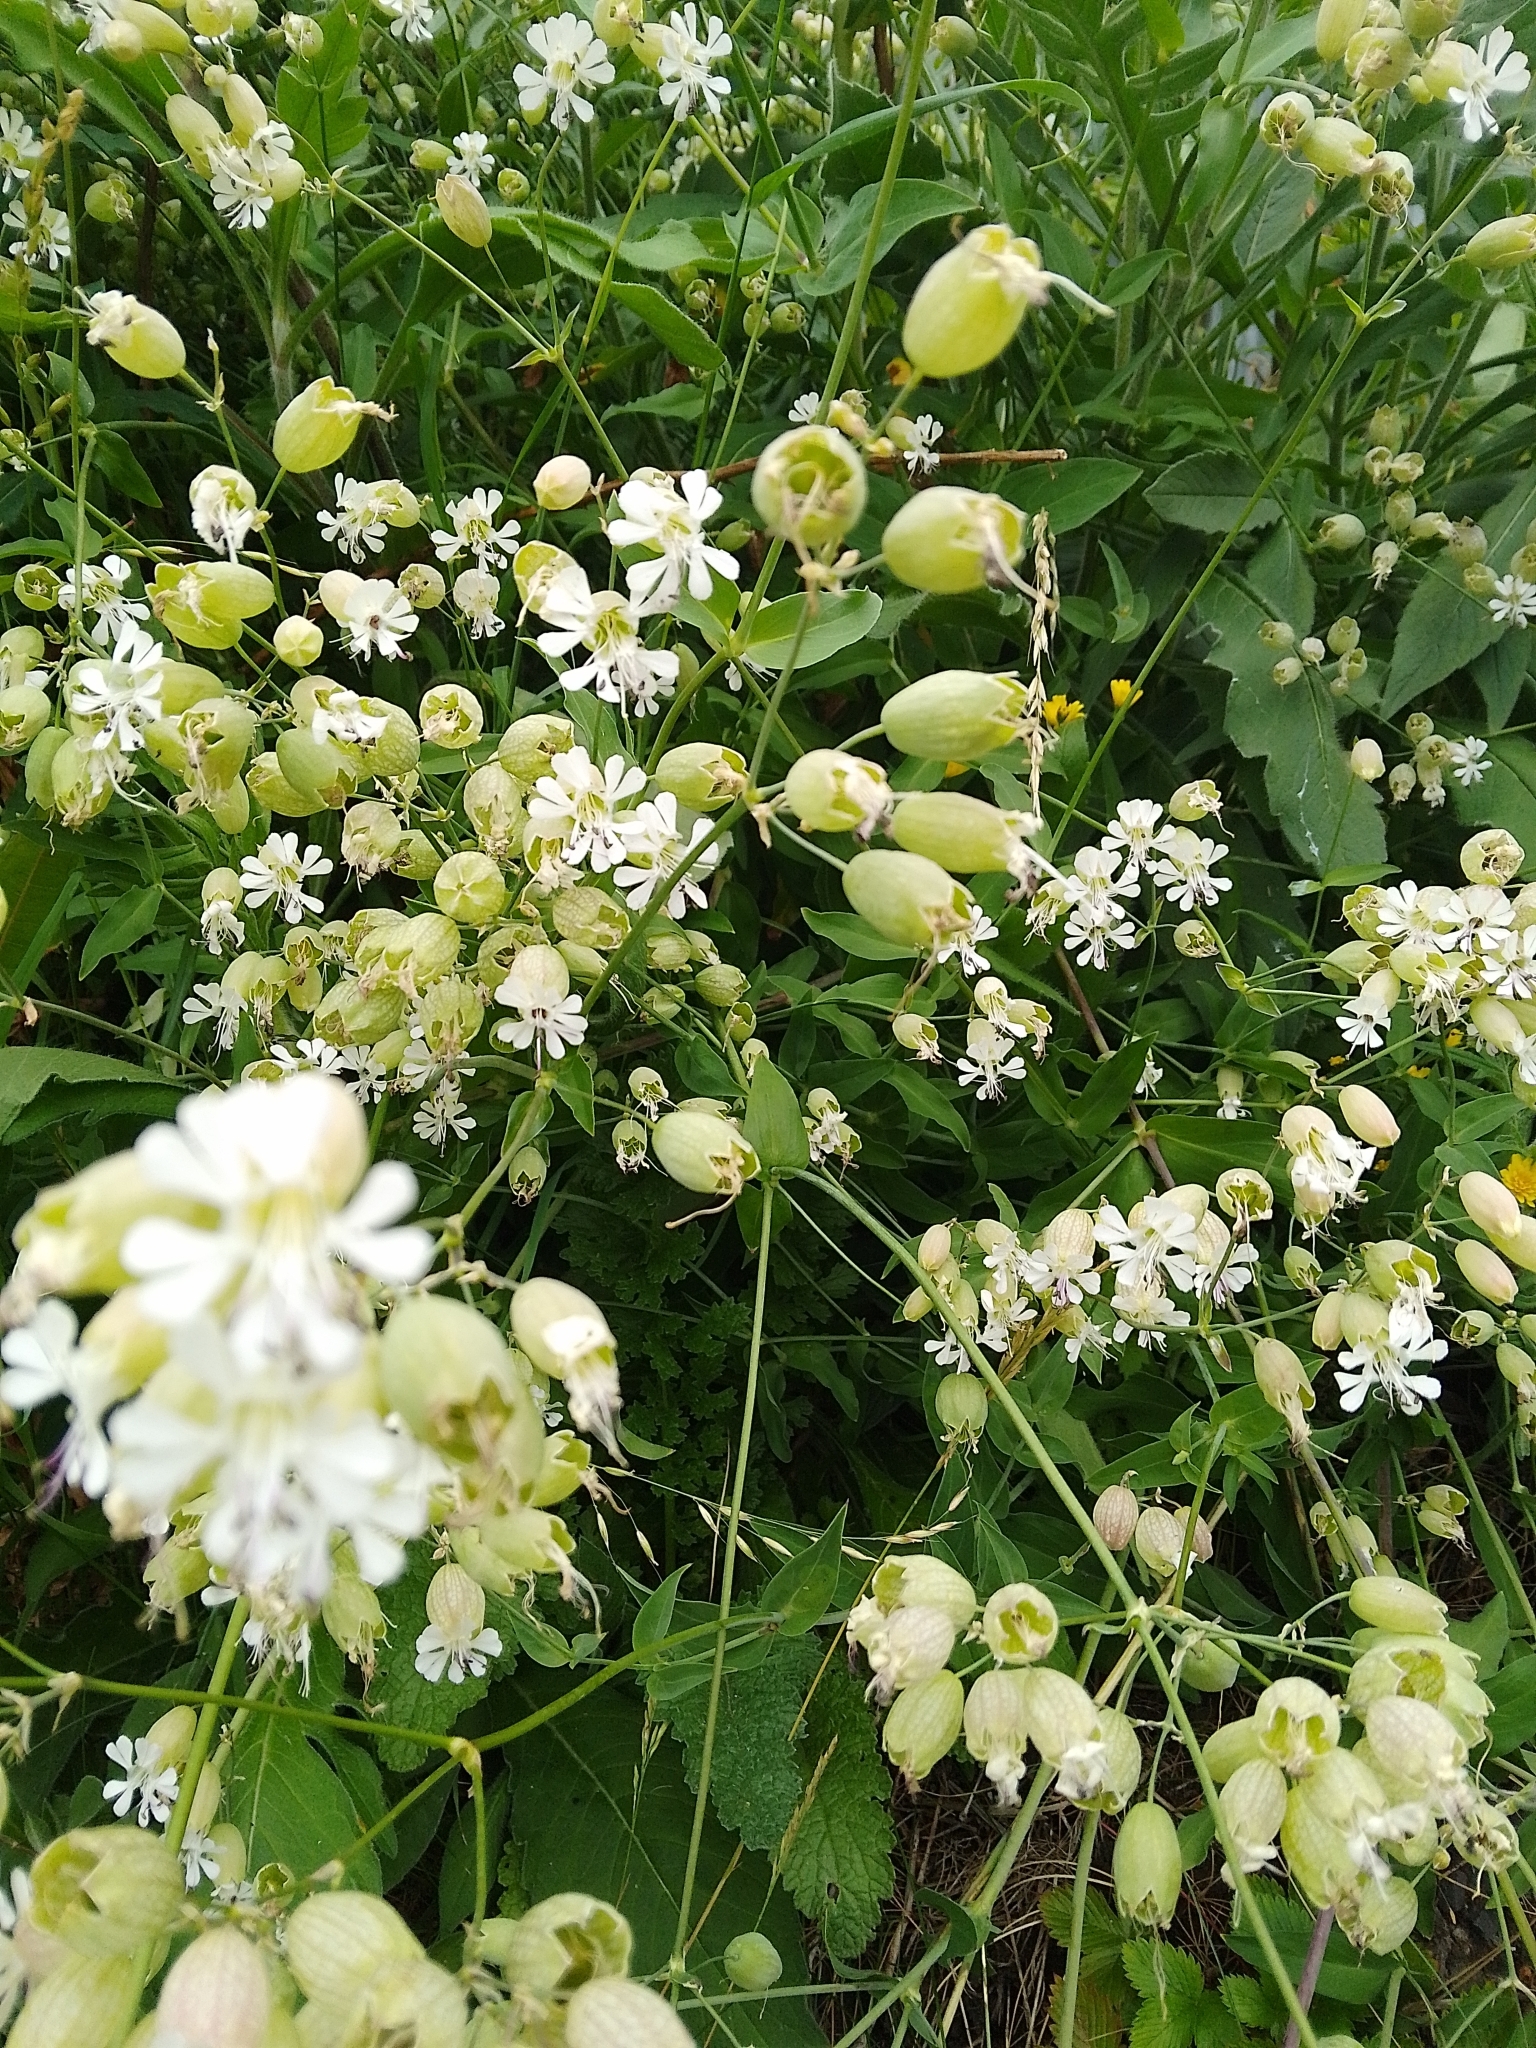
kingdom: Plantae
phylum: Tracheophyta
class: Magnoliopsida
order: Caryophyllales
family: Caryophyllaceae
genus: Silene
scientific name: Silene vulgaris
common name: Bladder campion
